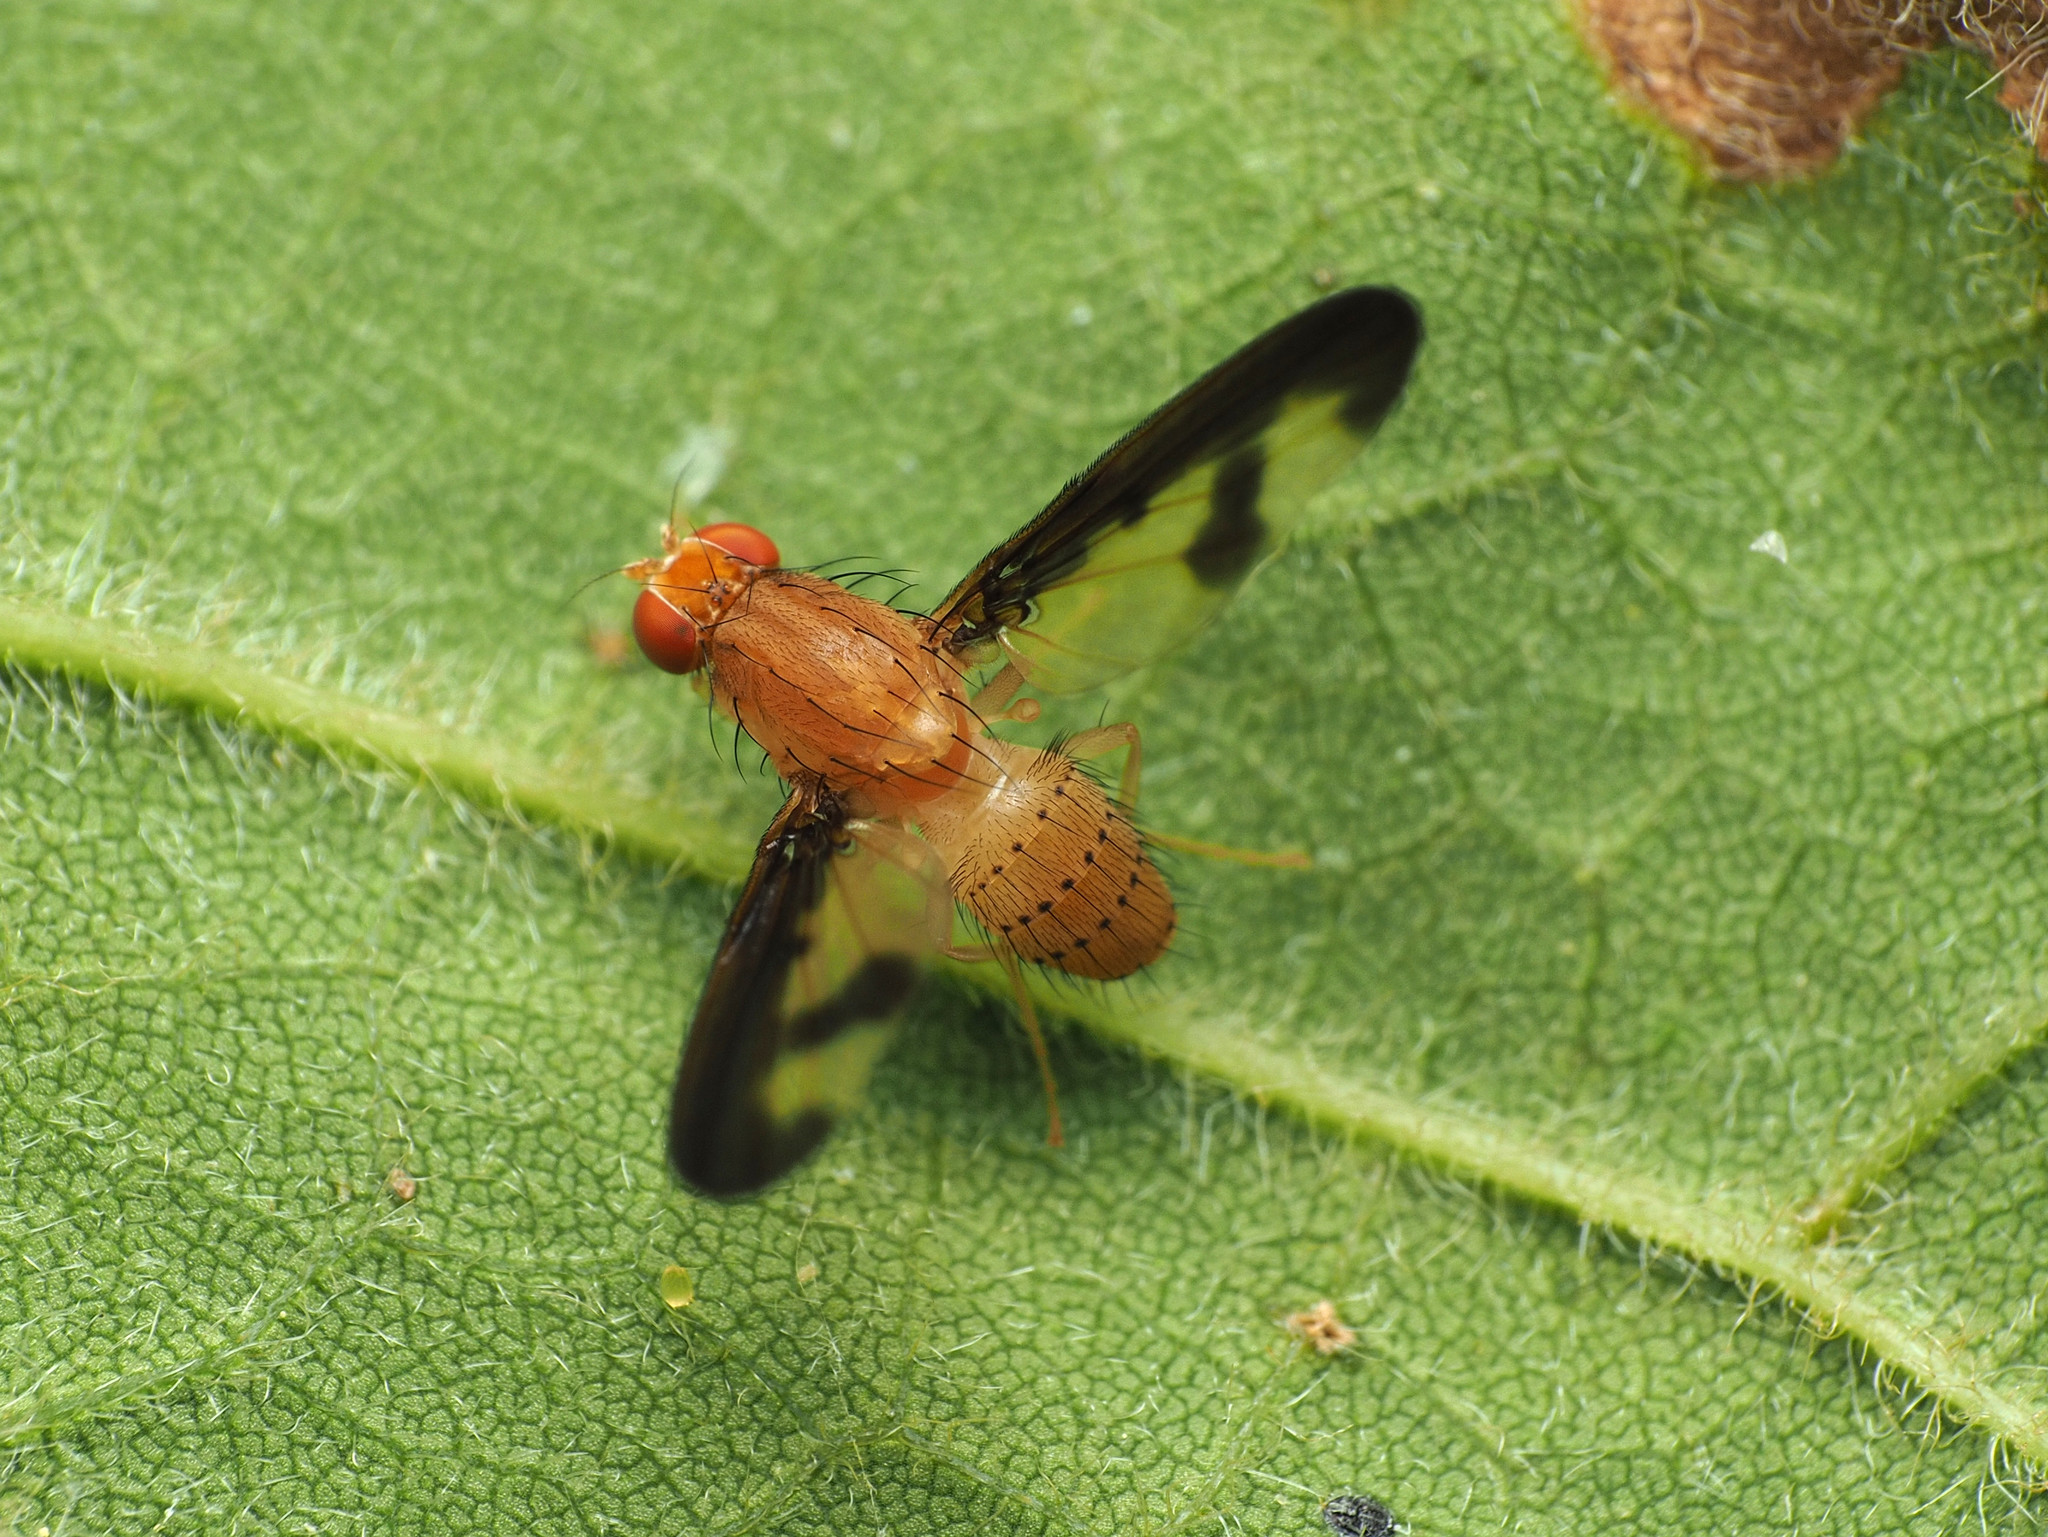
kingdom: Animalia
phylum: Arthropoda
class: Insecta
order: Diptera
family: Pallopteridae
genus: Toxonevra
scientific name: Toxonevra superba
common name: Antlered flutter fly
